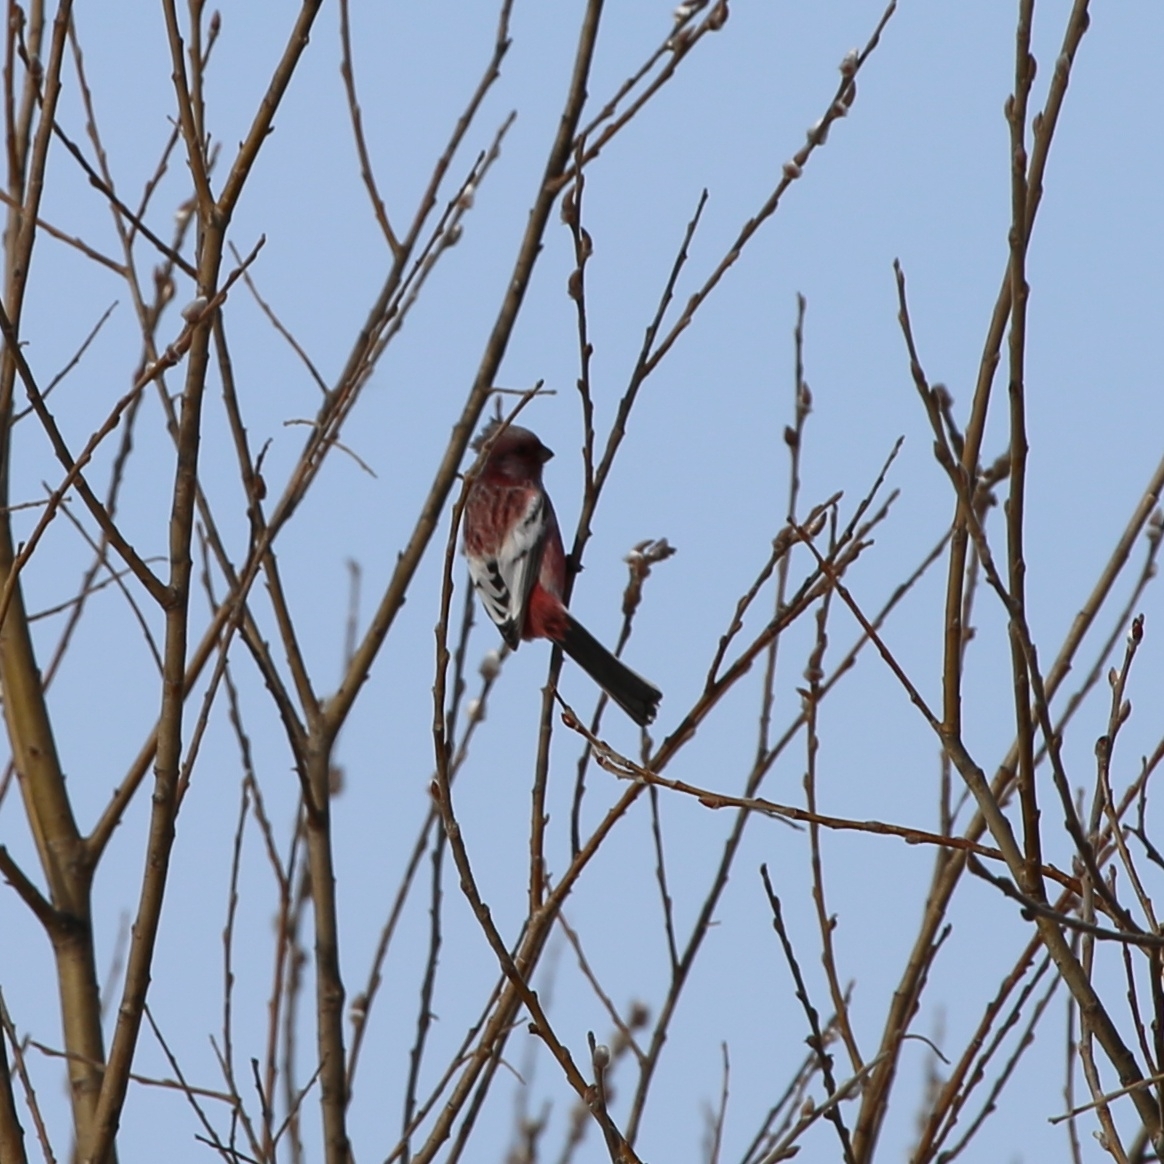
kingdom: Animalia
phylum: Chordata
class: Aves
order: Passeriformes
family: Fringillidae
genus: Carpodacus
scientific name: Carpodacus sibiricus
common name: Long-tailed rosefinch
